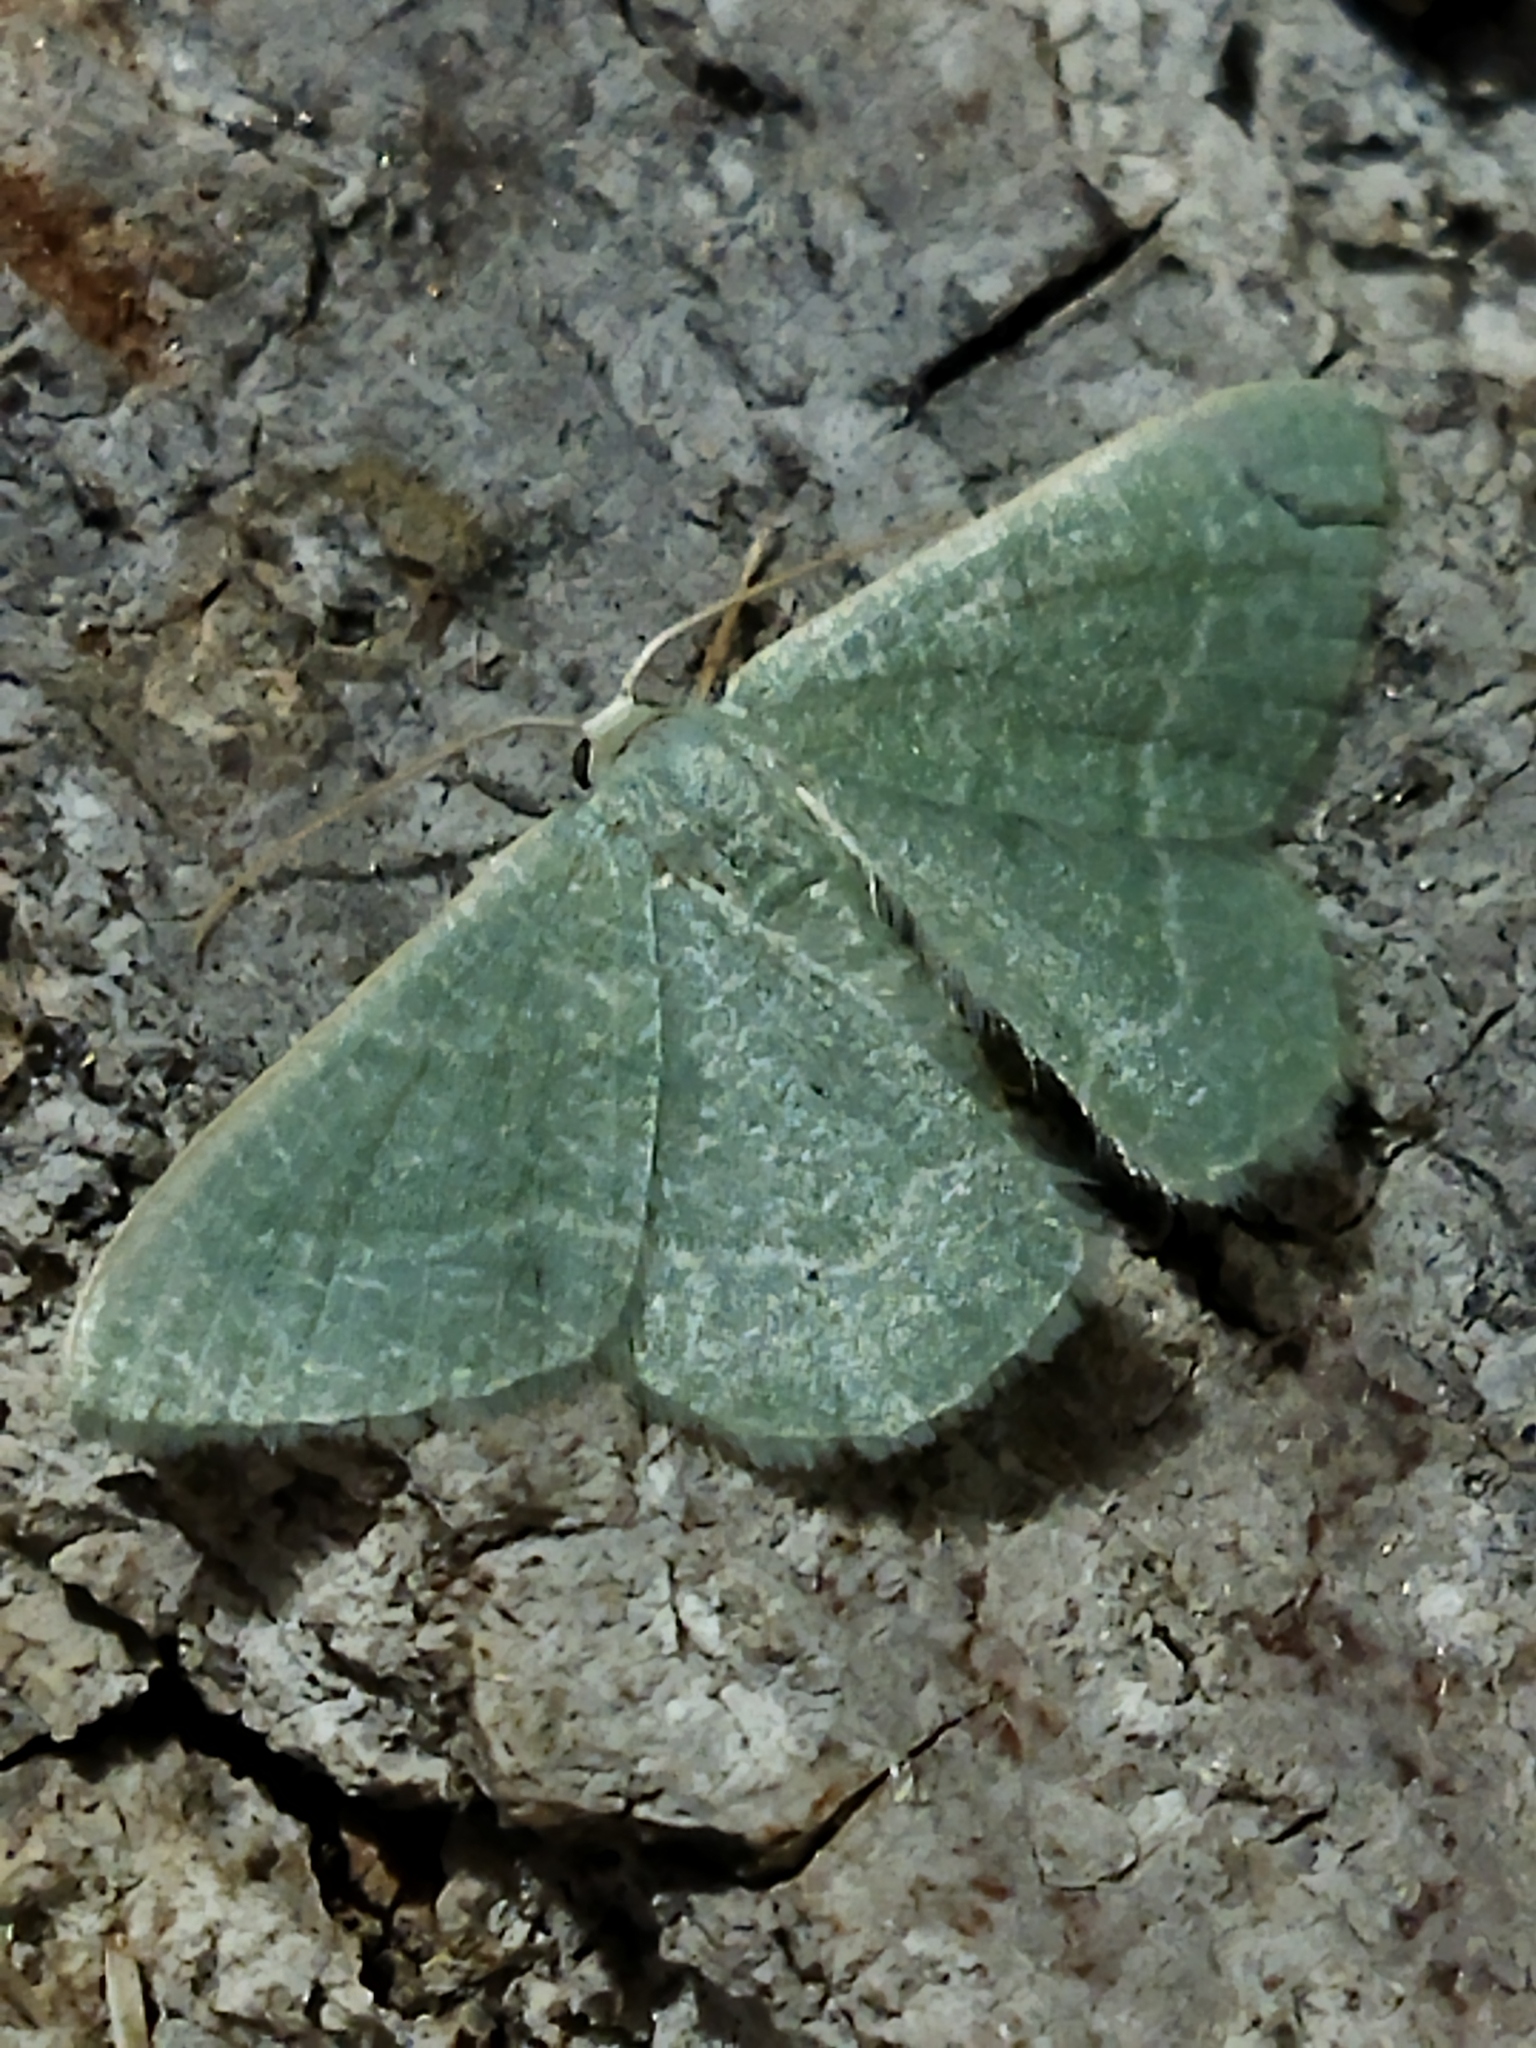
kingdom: Animalia
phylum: Arthropoda
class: Insecta
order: Lepidoptera
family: Geometridae
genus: Chlorissa
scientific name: Chlorissa etruscaria
